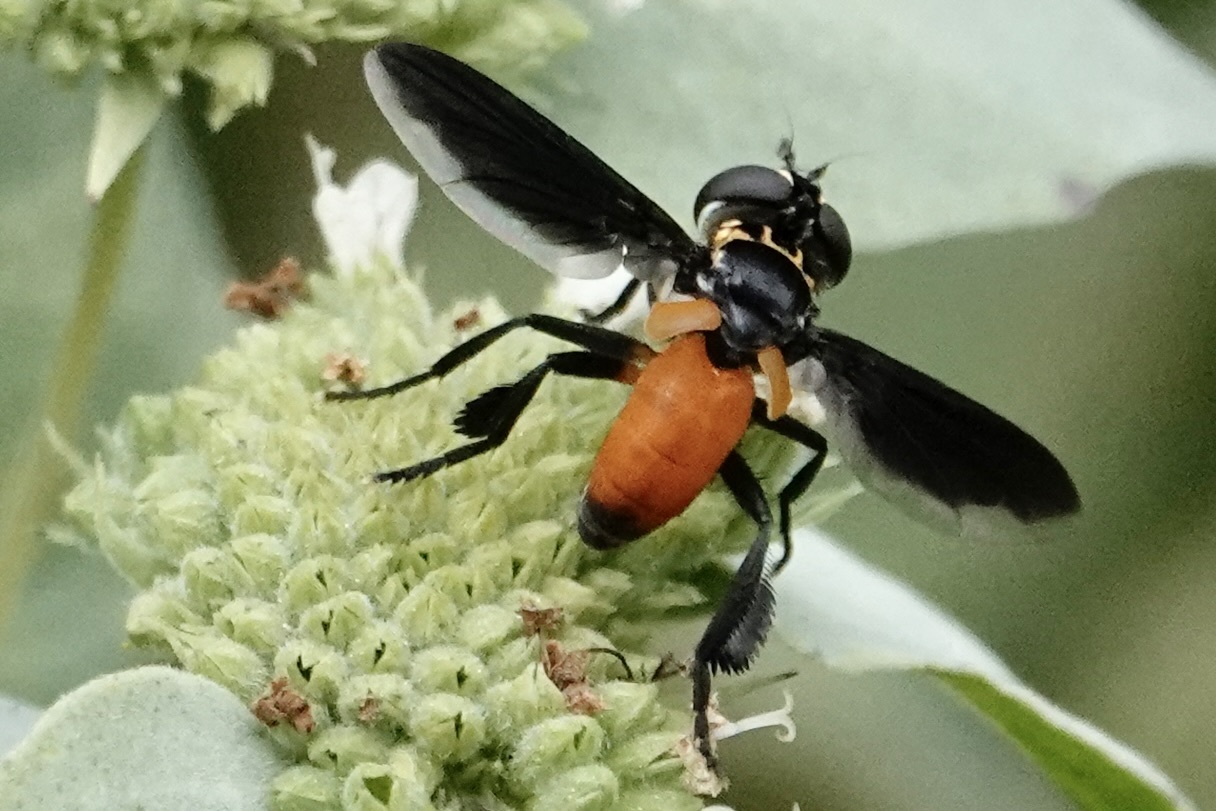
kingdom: Animalia
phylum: Arthropoda
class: Insecta
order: Diptera
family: Tachinidae
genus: Trichopoda
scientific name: Trichopoda pennipes
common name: Tachinid fly
